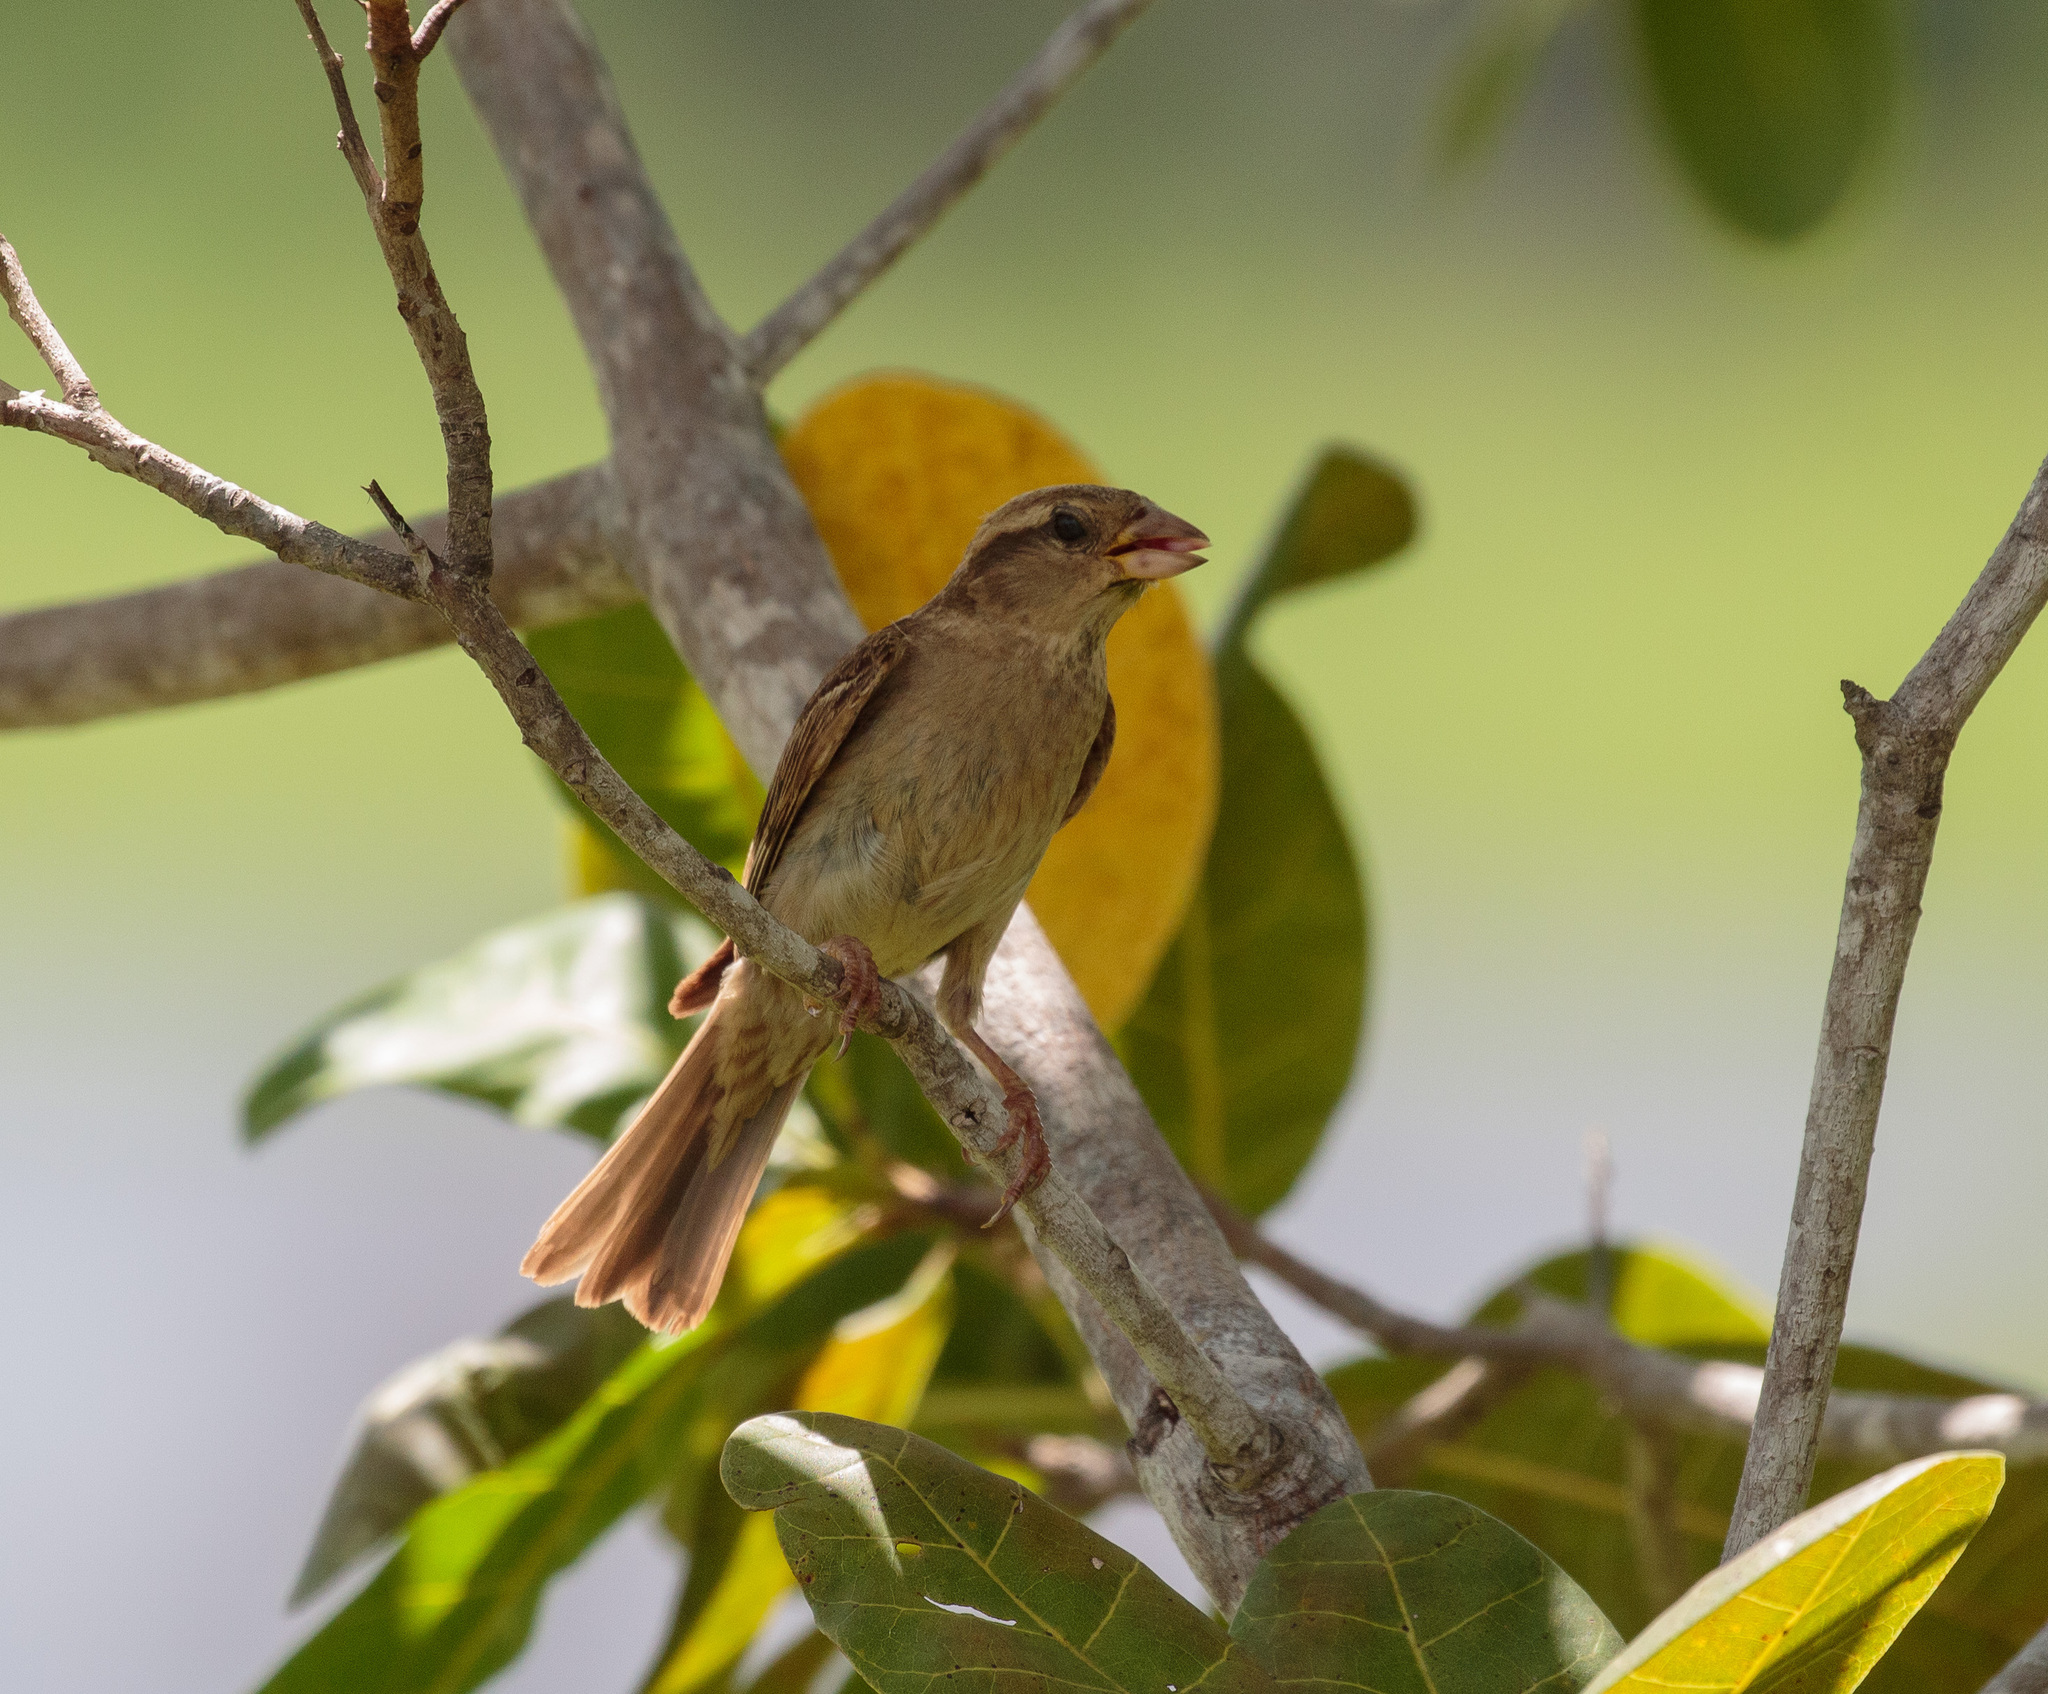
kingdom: Animalia
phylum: Chordata
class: Aves
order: Passeriformes
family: Passeridae
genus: Passer
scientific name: Passer domesticus
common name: House sparrow
